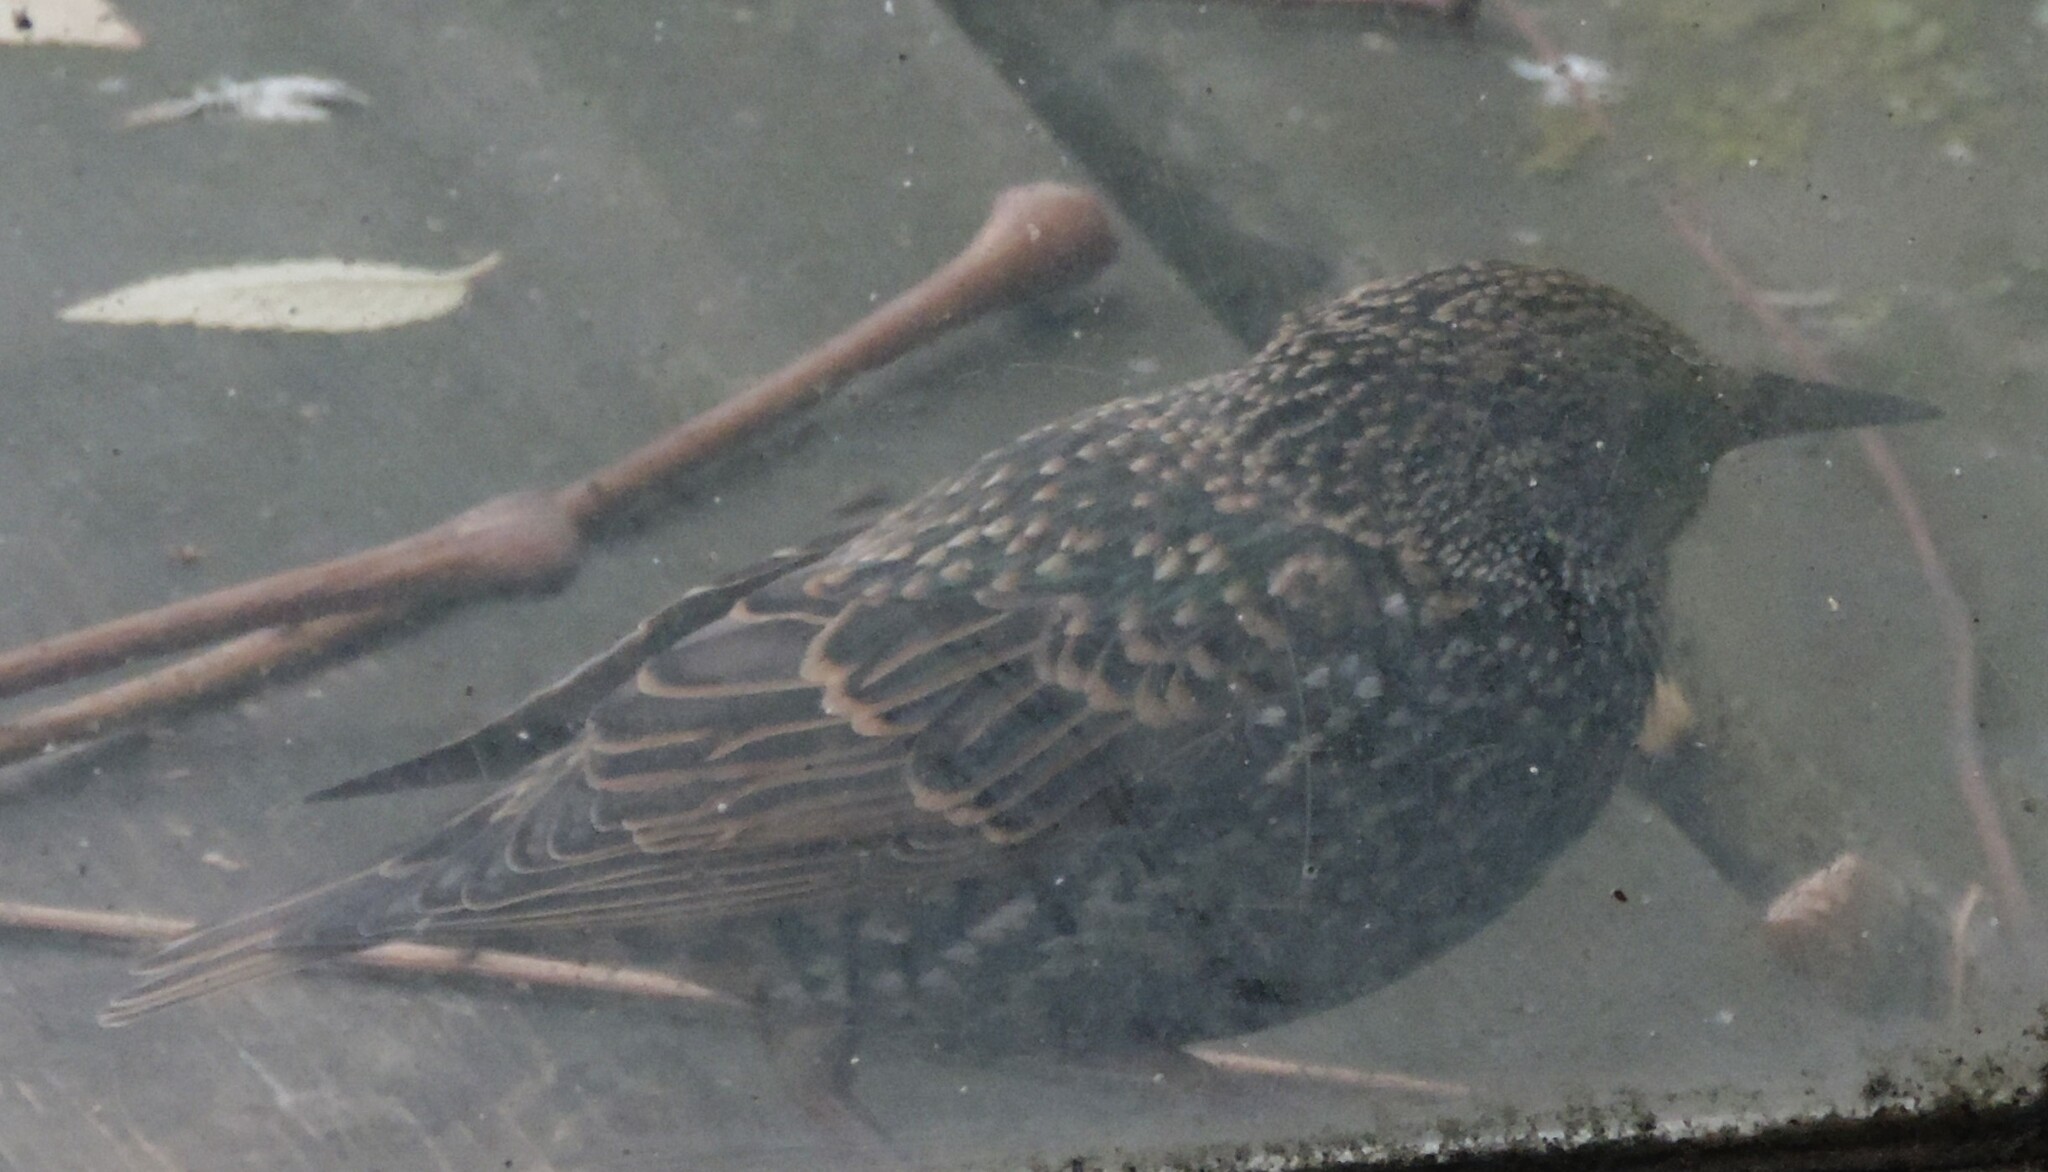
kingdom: Animalia
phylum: Chordata
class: Aves
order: Passeriformes
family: Sturnidae
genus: Sturnus
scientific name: Sturnus vulgaris
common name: Common starling
